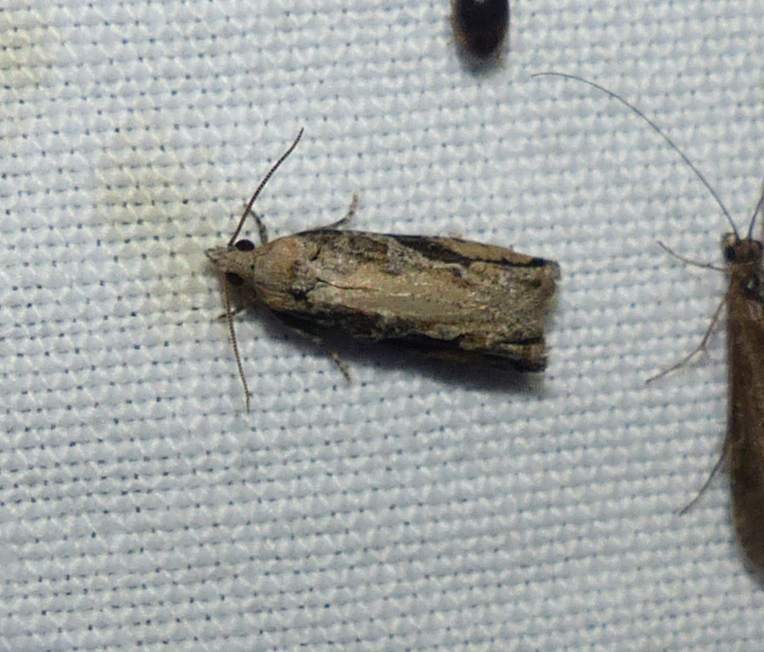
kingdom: Animalia
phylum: Arthropoda
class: Insecta
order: Lepidoptera
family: Tortricidae
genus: Proteoteras
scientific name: Proteoteras crescentana
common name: Black-crescent proteoteras moth
